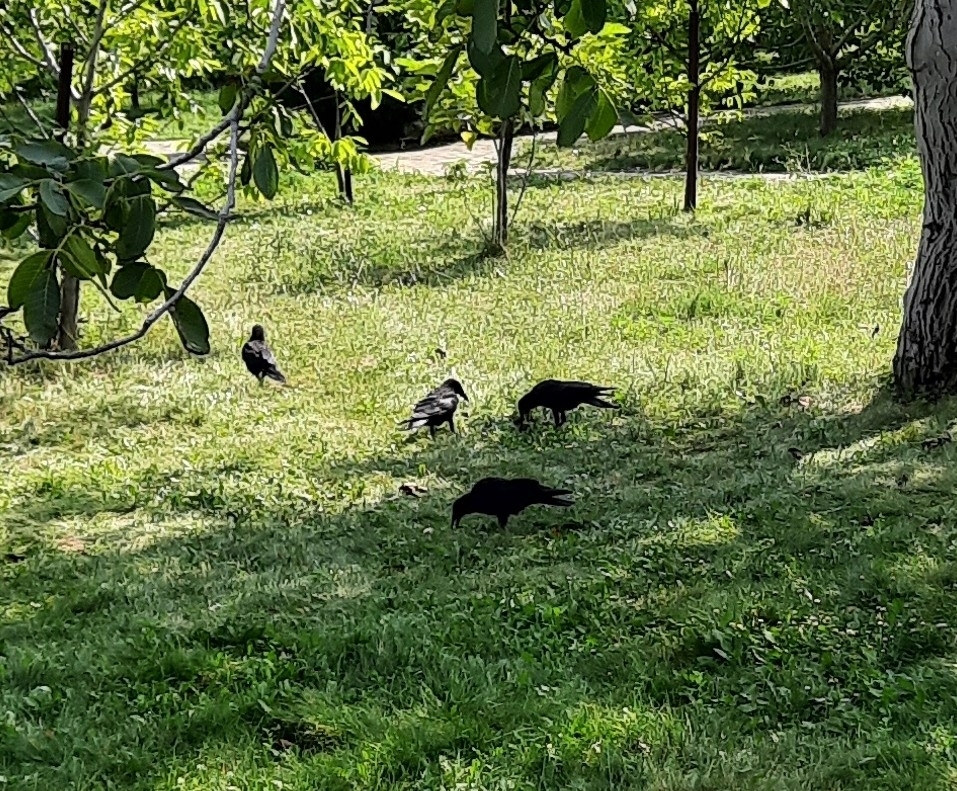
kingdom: Animalia
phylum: Chordata
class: Aves
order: Passeriformes
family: Corvidae
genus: Corvus
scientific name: Corvus frugilegus
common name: Rook
